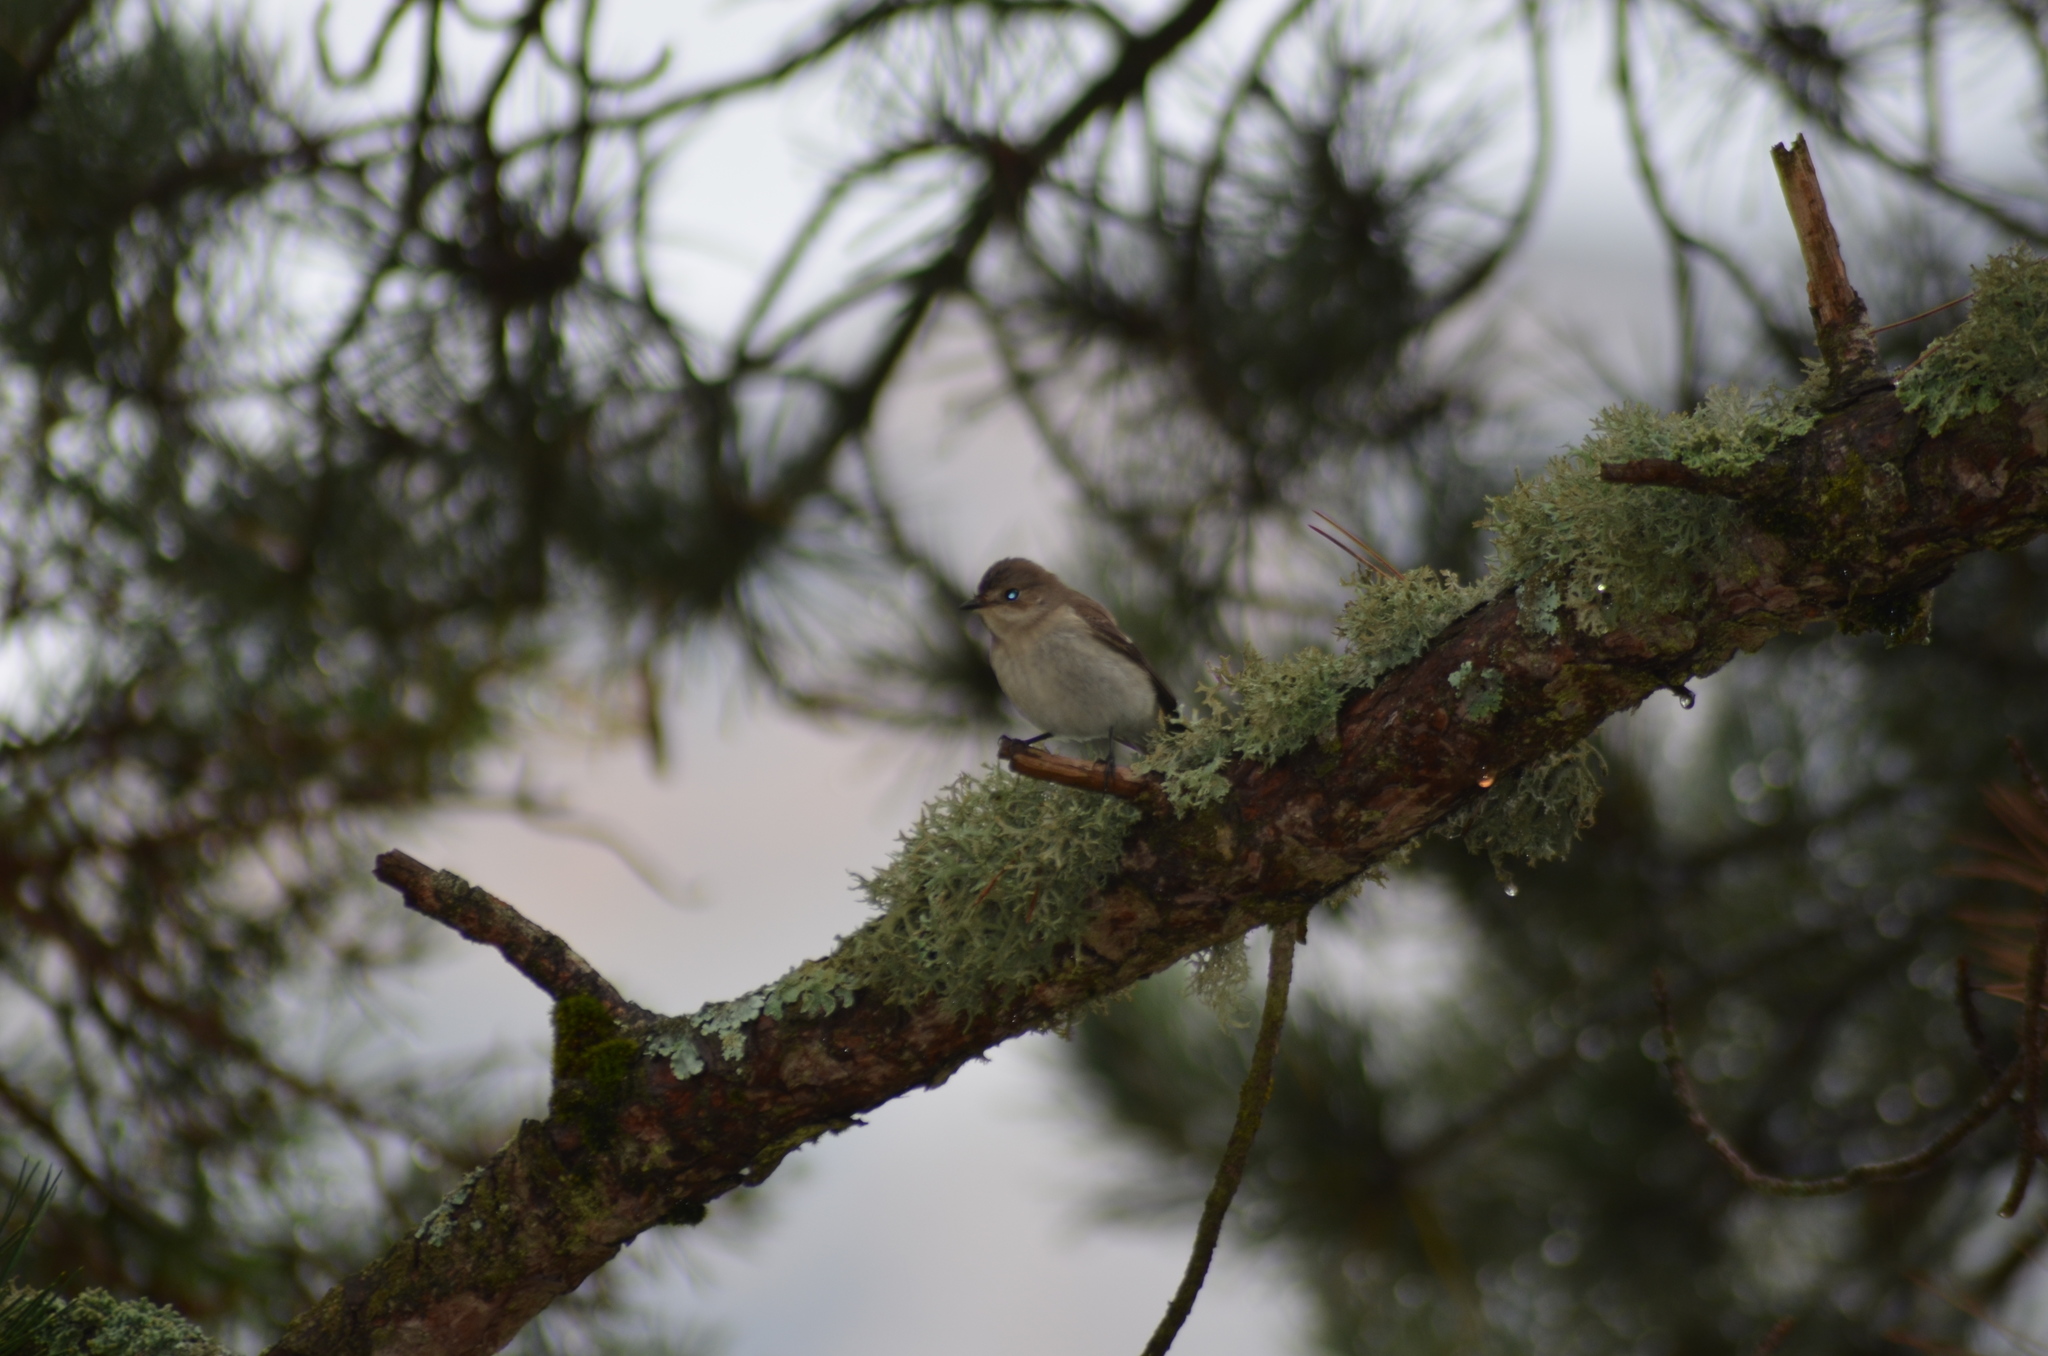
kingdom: Animalia
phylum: Chordata
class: Aves
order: Passeriformes
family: Muscicapidae
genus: Ficedula
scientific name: Ficedula hypoleuca
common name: European pied flycatcher
